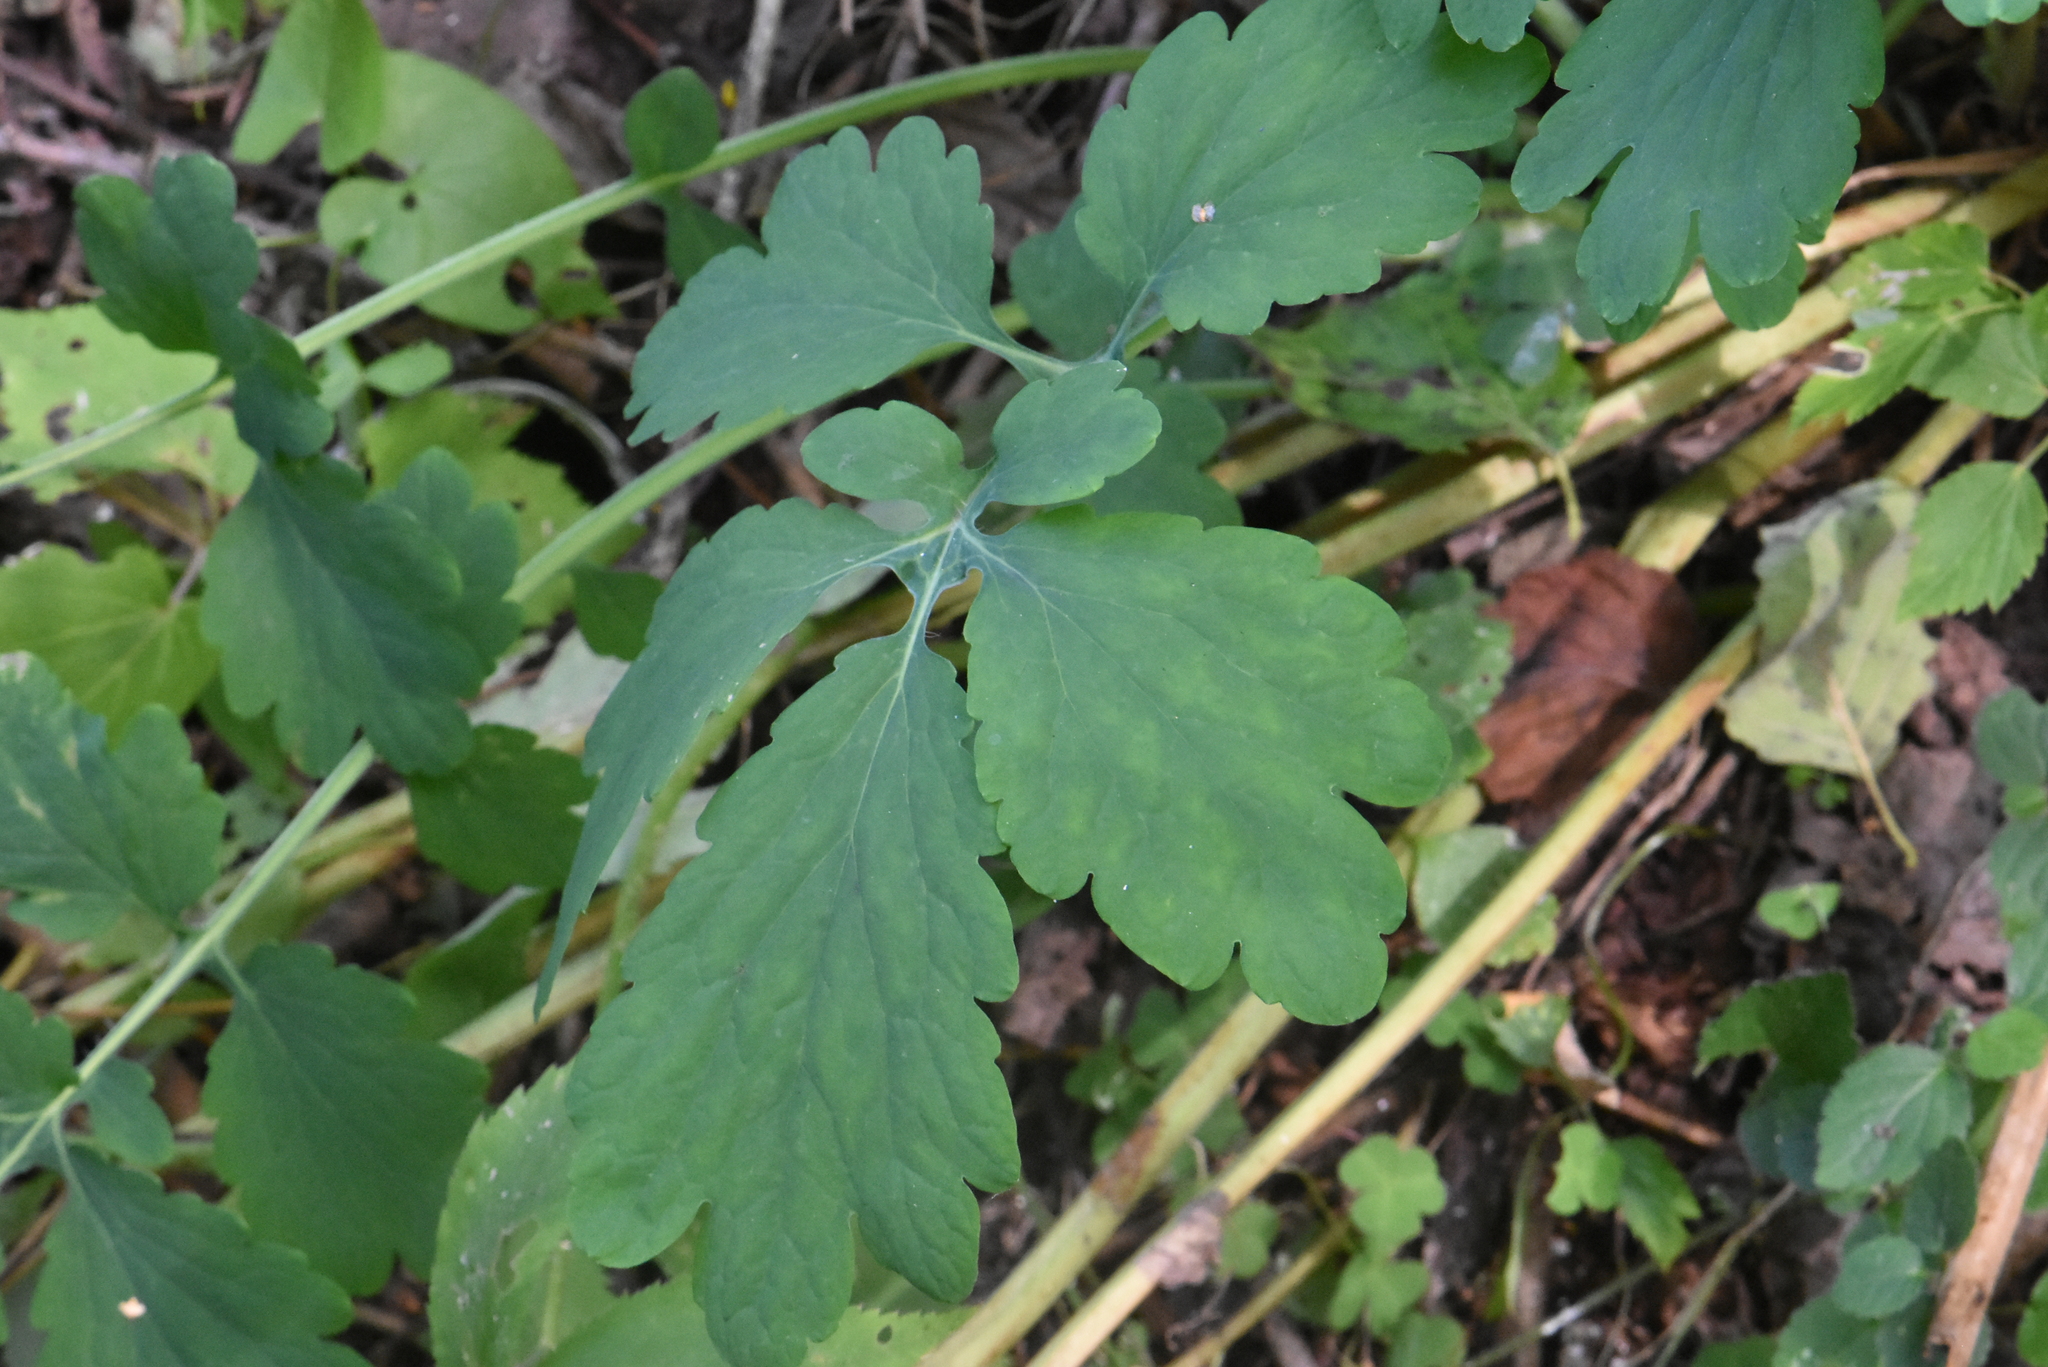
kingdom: Plantae
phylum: Tracheophyta
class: Magnoliopsida
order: Ranunculales
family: Papaveraceae
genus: Chelidonium
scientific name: Chelidonium majus
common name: Greater celandine
